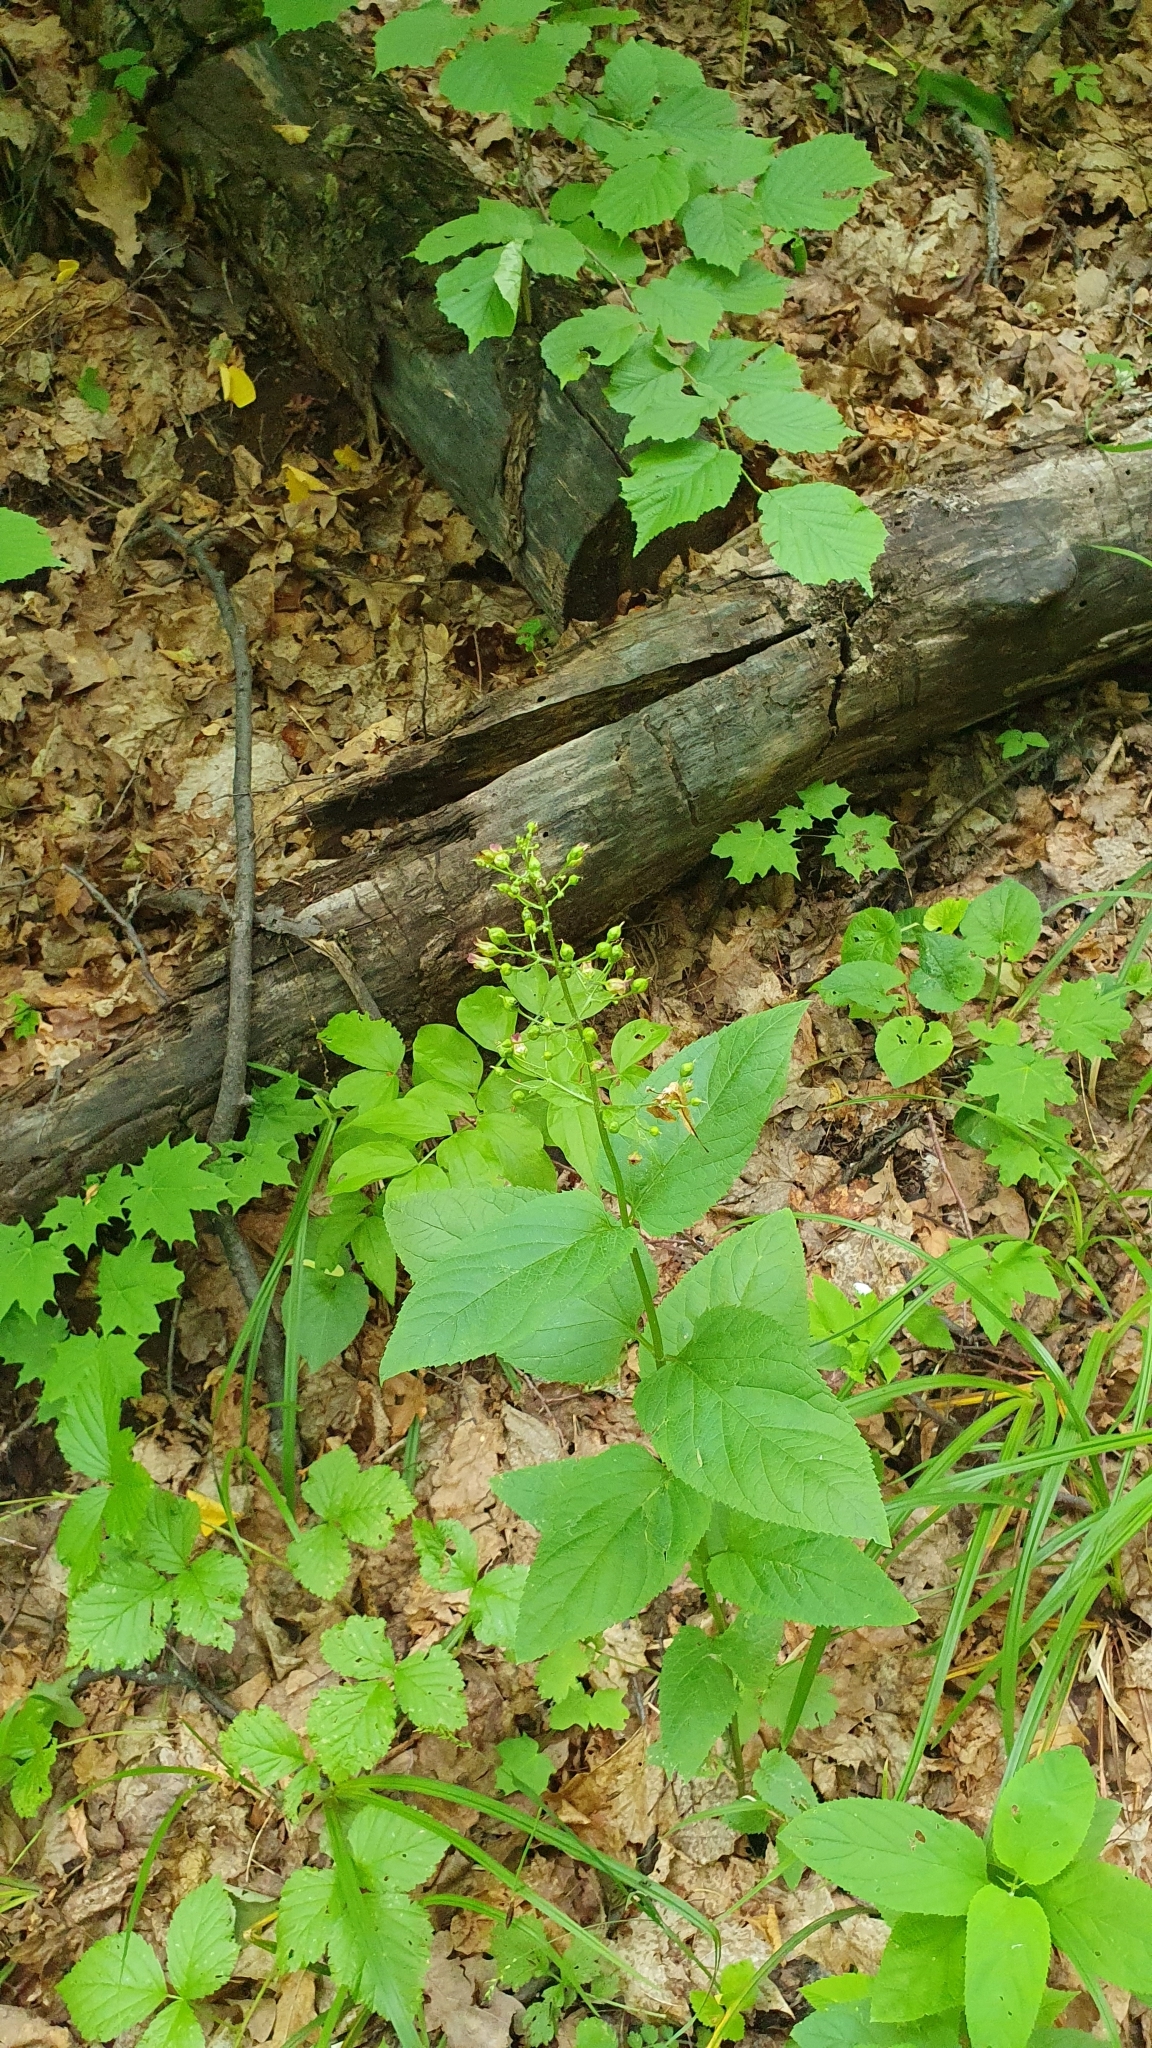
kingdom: Plantae
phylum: Tracheophyta
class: Magnoliopsida
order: Lamiales
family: Scrophulariaceae
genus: Scrophularia
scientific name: Scrophularia nodosa
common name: Common figwort
